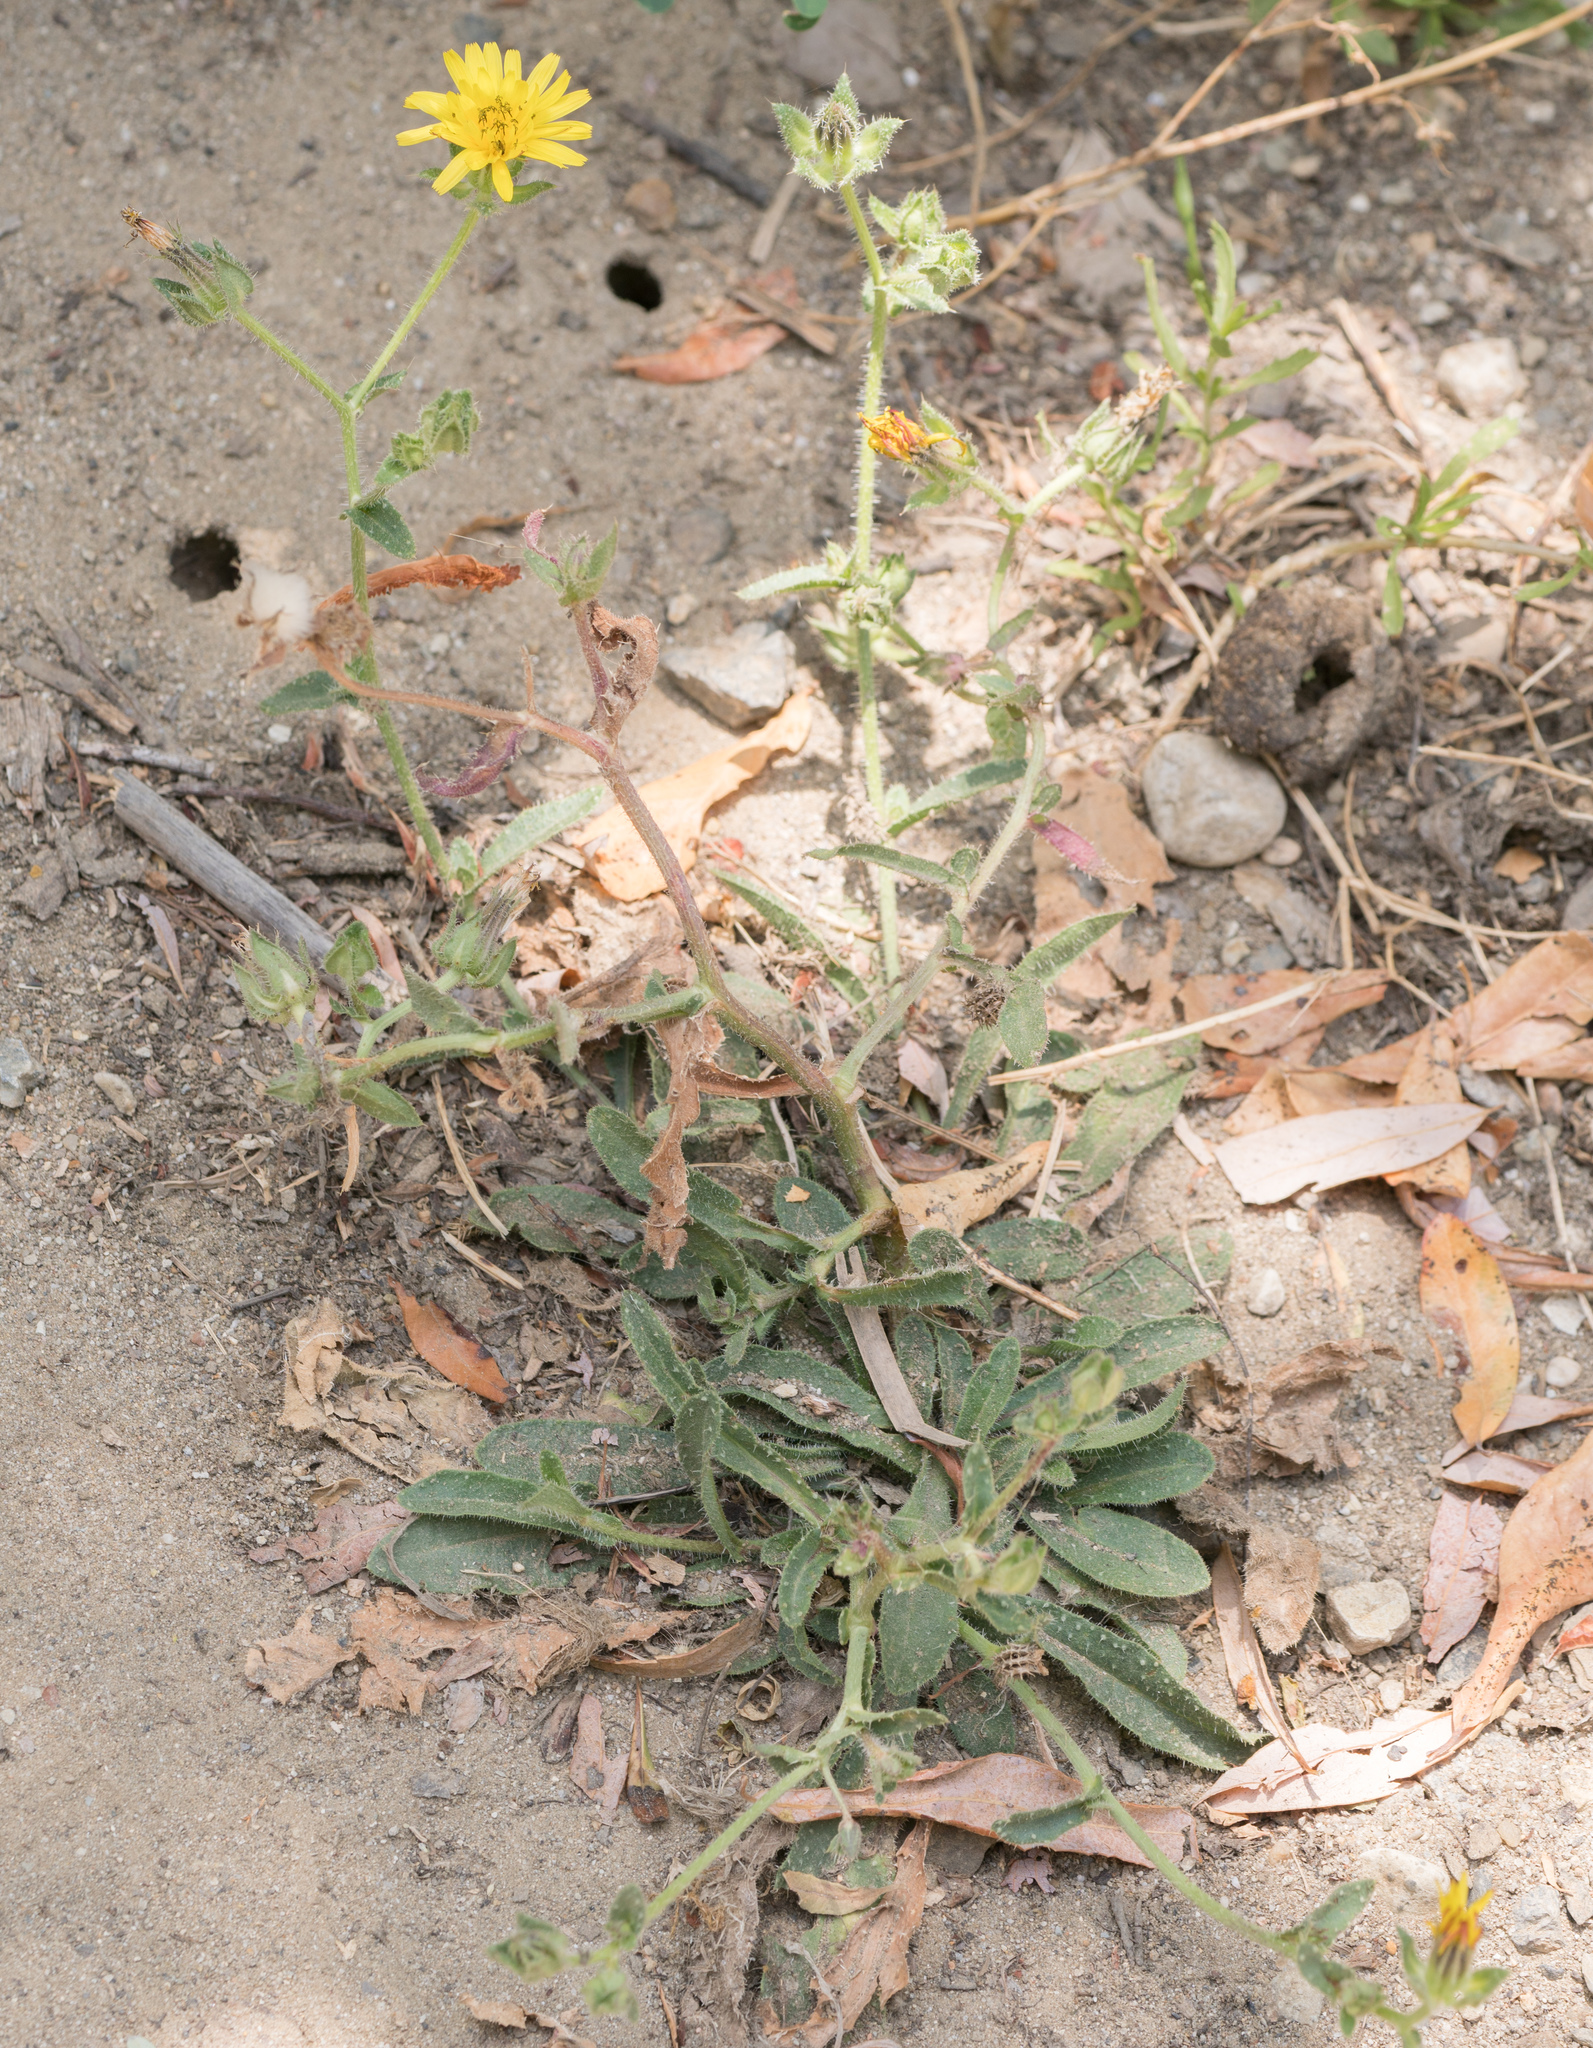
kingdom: Plantae
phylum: Tracheophyta
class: Magnoliopsida
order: Asterales
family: Asteraceae
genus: Helminthotheca
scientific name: Helminthotheca echioides
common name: Ox-tongue
